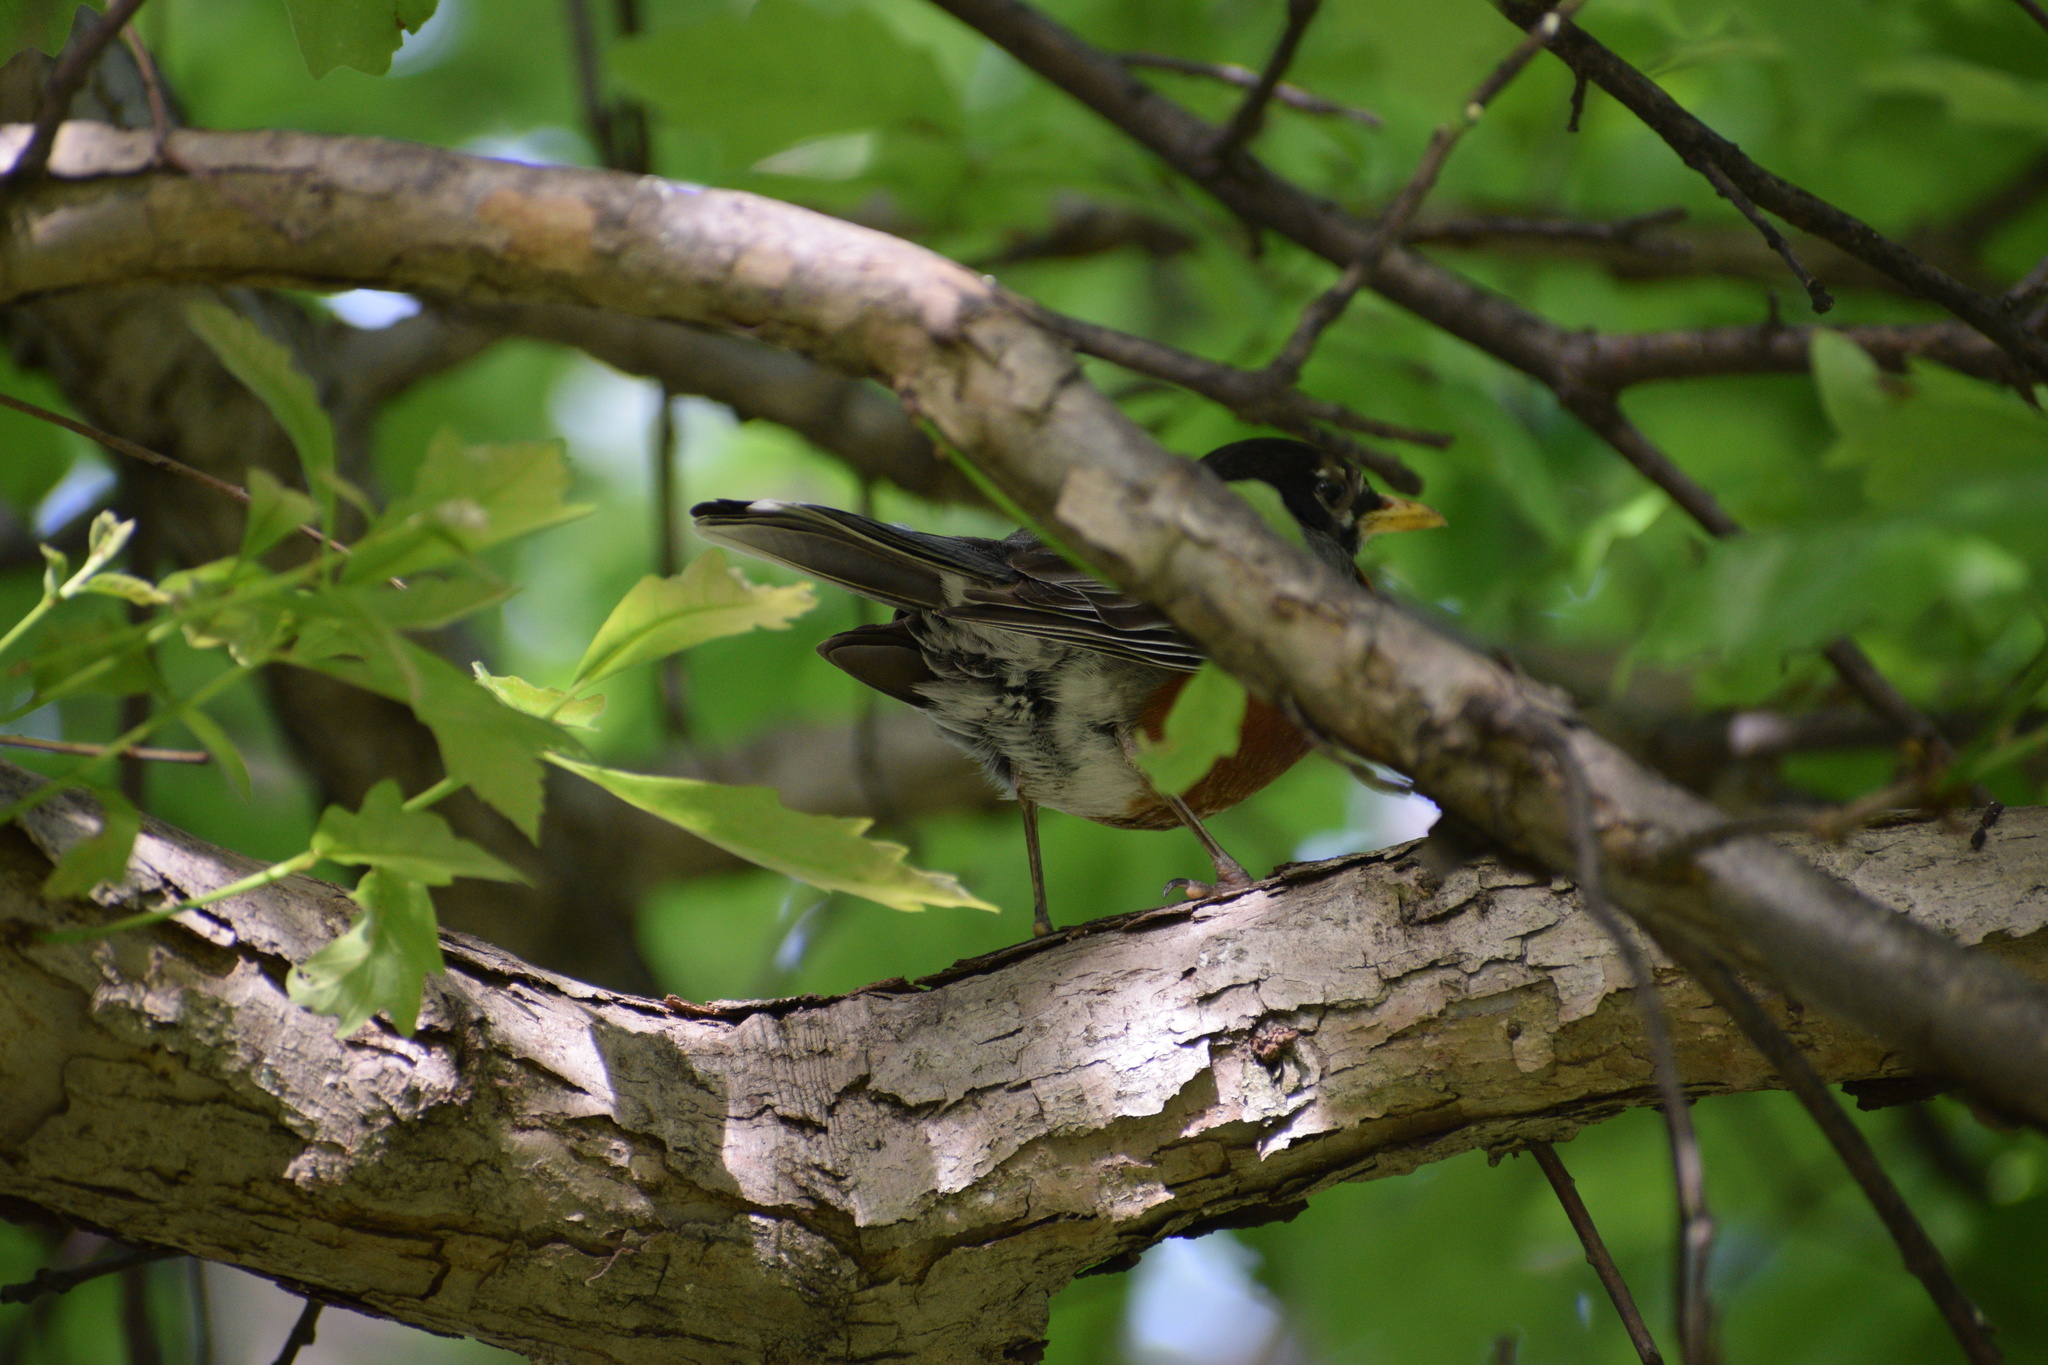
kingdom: Animalia
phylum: Chordata
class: Aves
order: Passeriformes
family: Turdidae
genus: Turdus
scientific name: Turdus migratorius
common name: American robin
